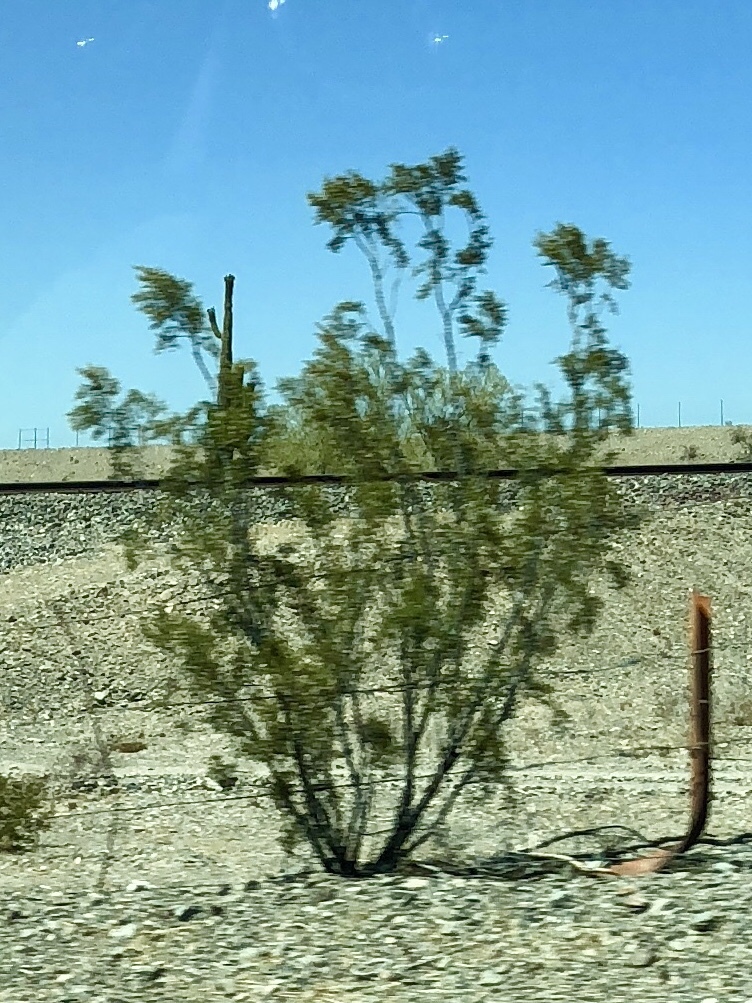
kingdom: Plantae
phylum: Tracheophyta
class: Magnoliopsida
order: Zygophyllales
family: Zygophyllaceae
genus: Larrea
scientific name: Larrea tridentata
